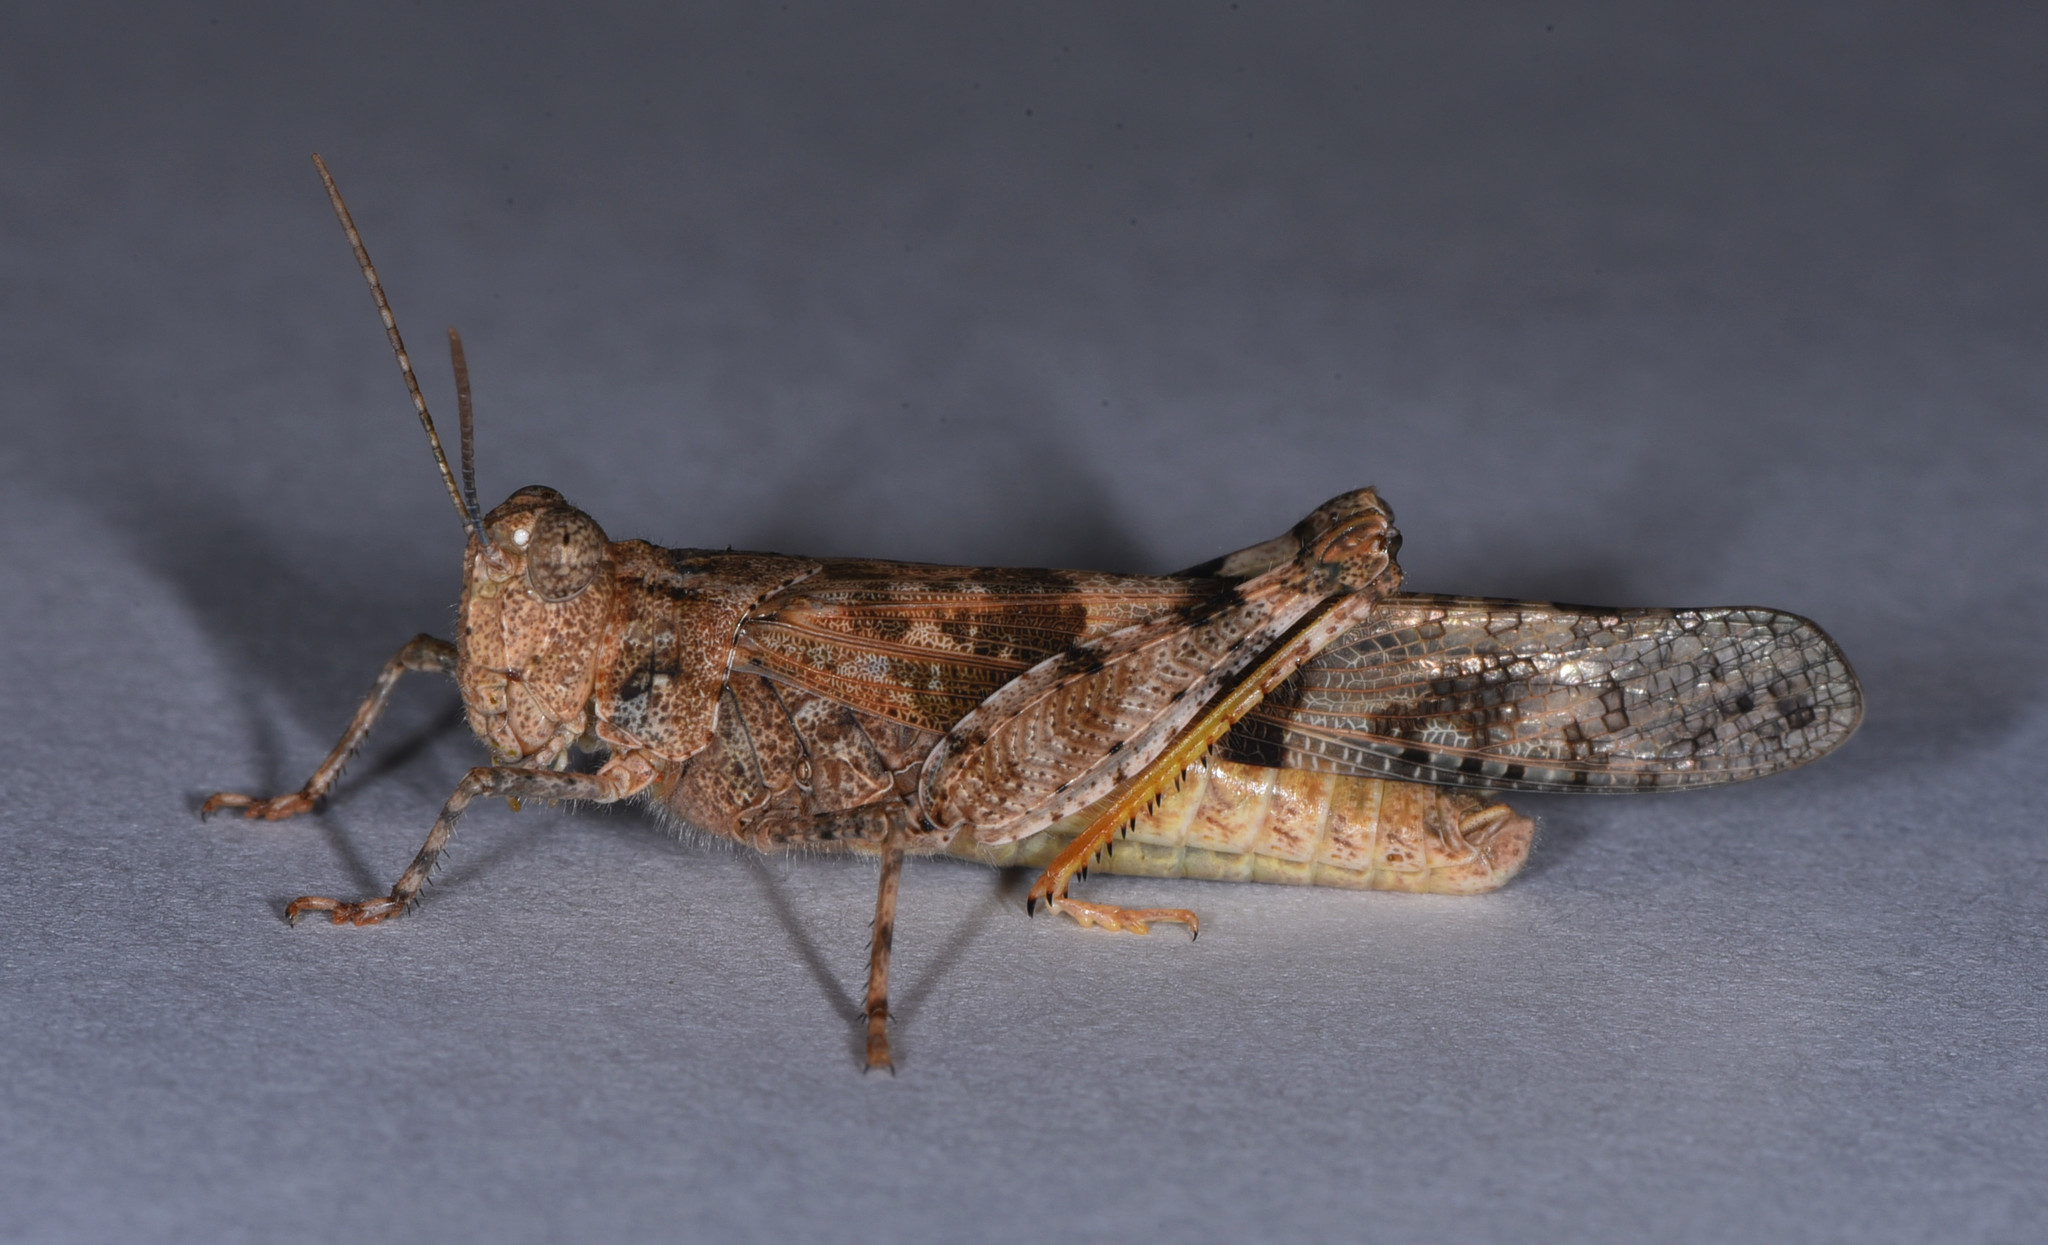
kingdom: Animalia
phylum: Arthropoda
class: Insecta
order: Orthoptera
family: Acrididae
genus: Trimerotropis
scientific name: Trimerotropis pallidipennis
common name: Pallid-winged grasshopper
